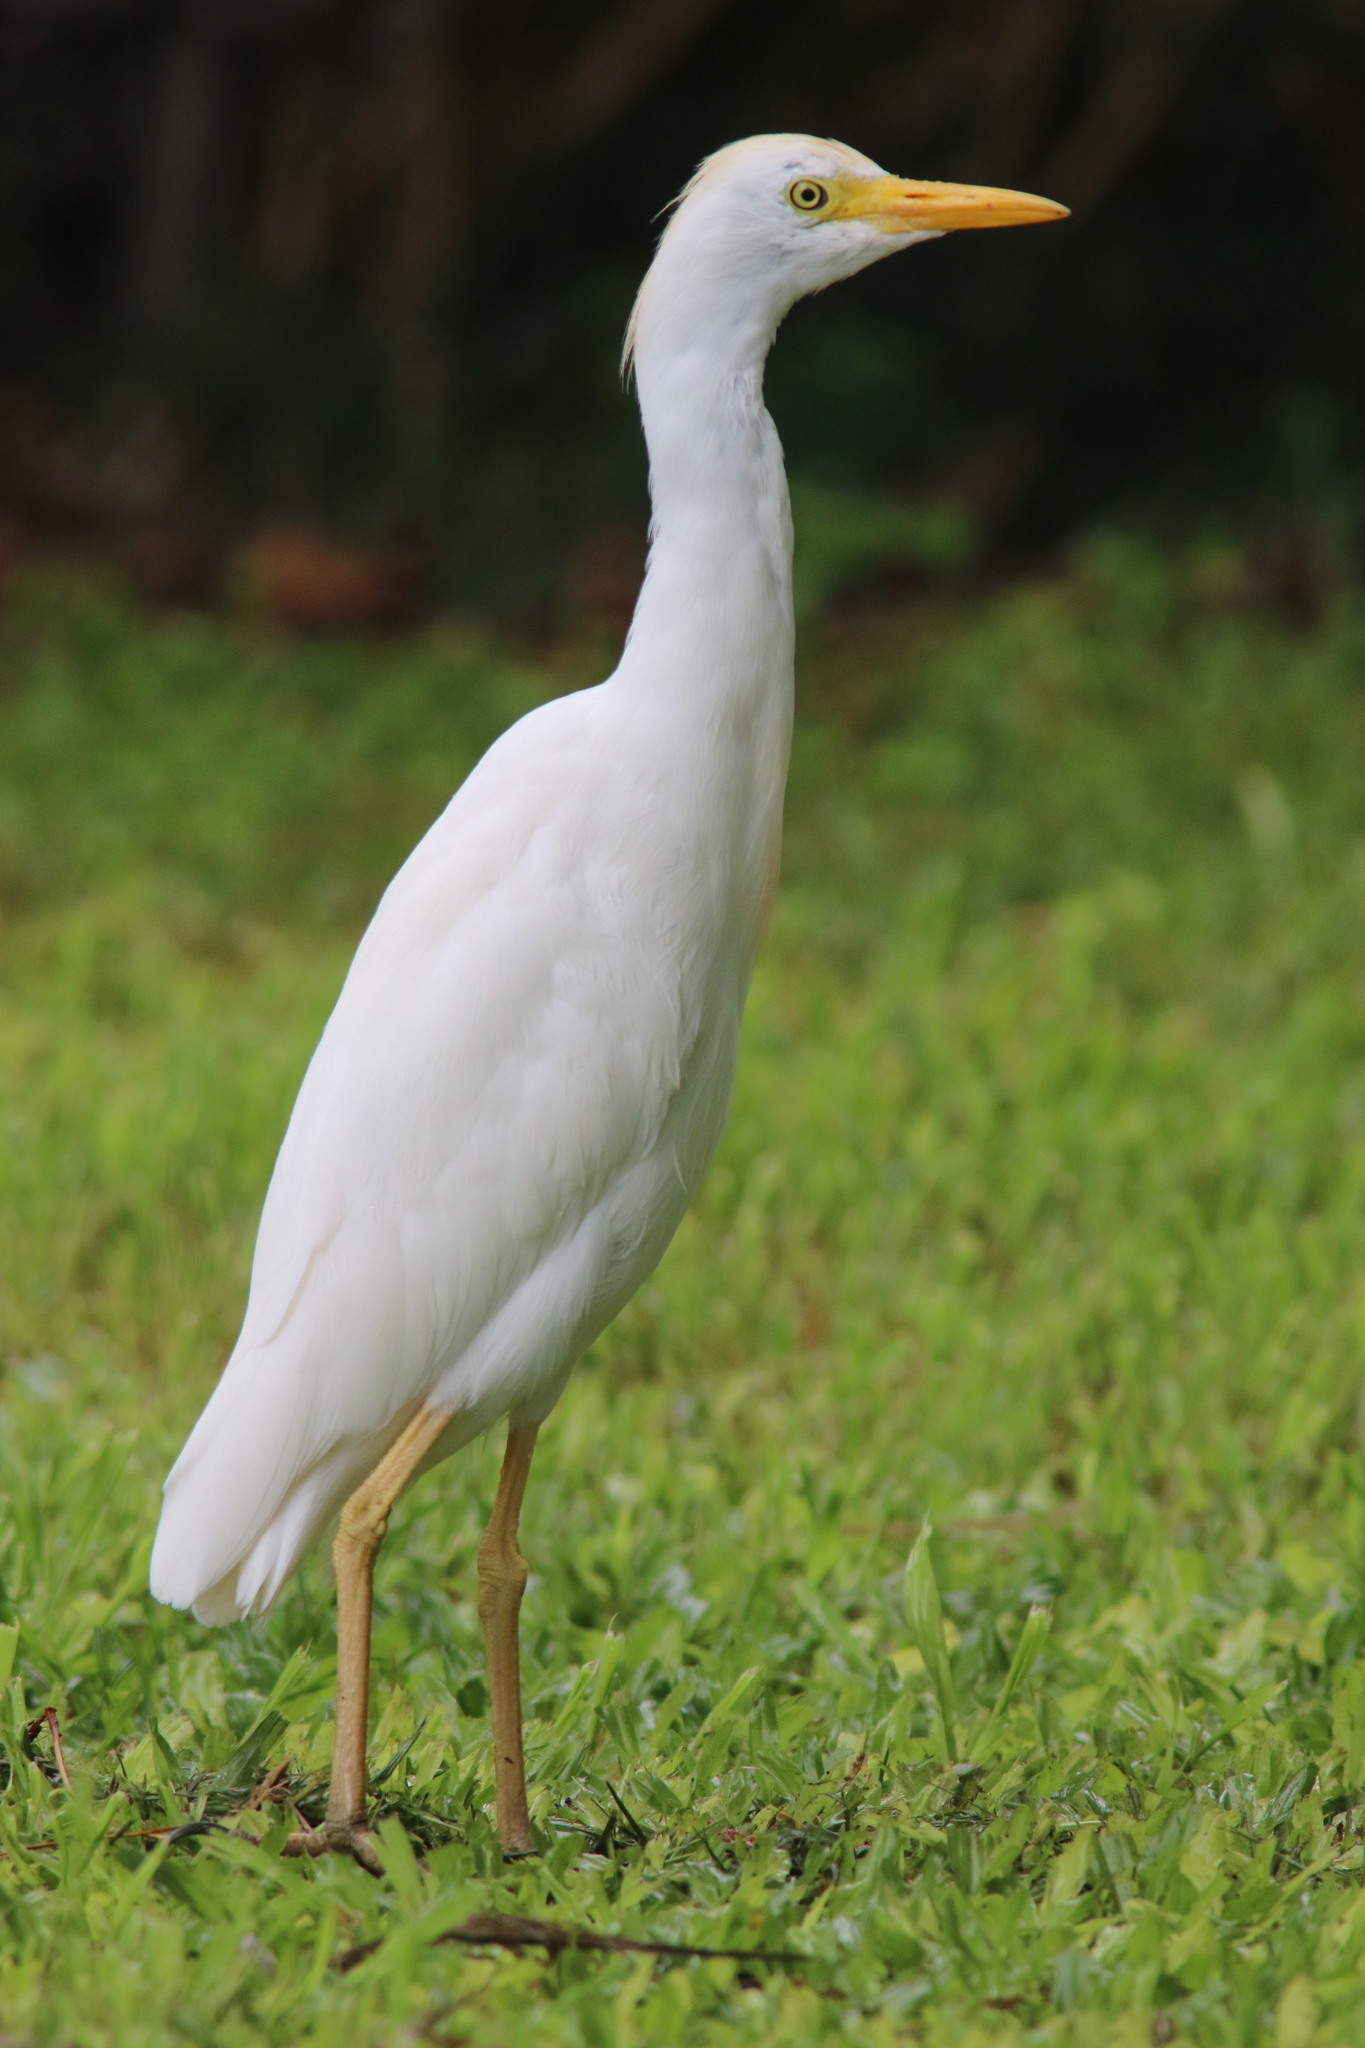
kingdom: Animalia
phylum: Chordata
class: Aves
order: Pelecaniformes
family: Ardeidae
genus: Bubulcus
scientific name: Bubulcus ibis
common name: Cattle egret
